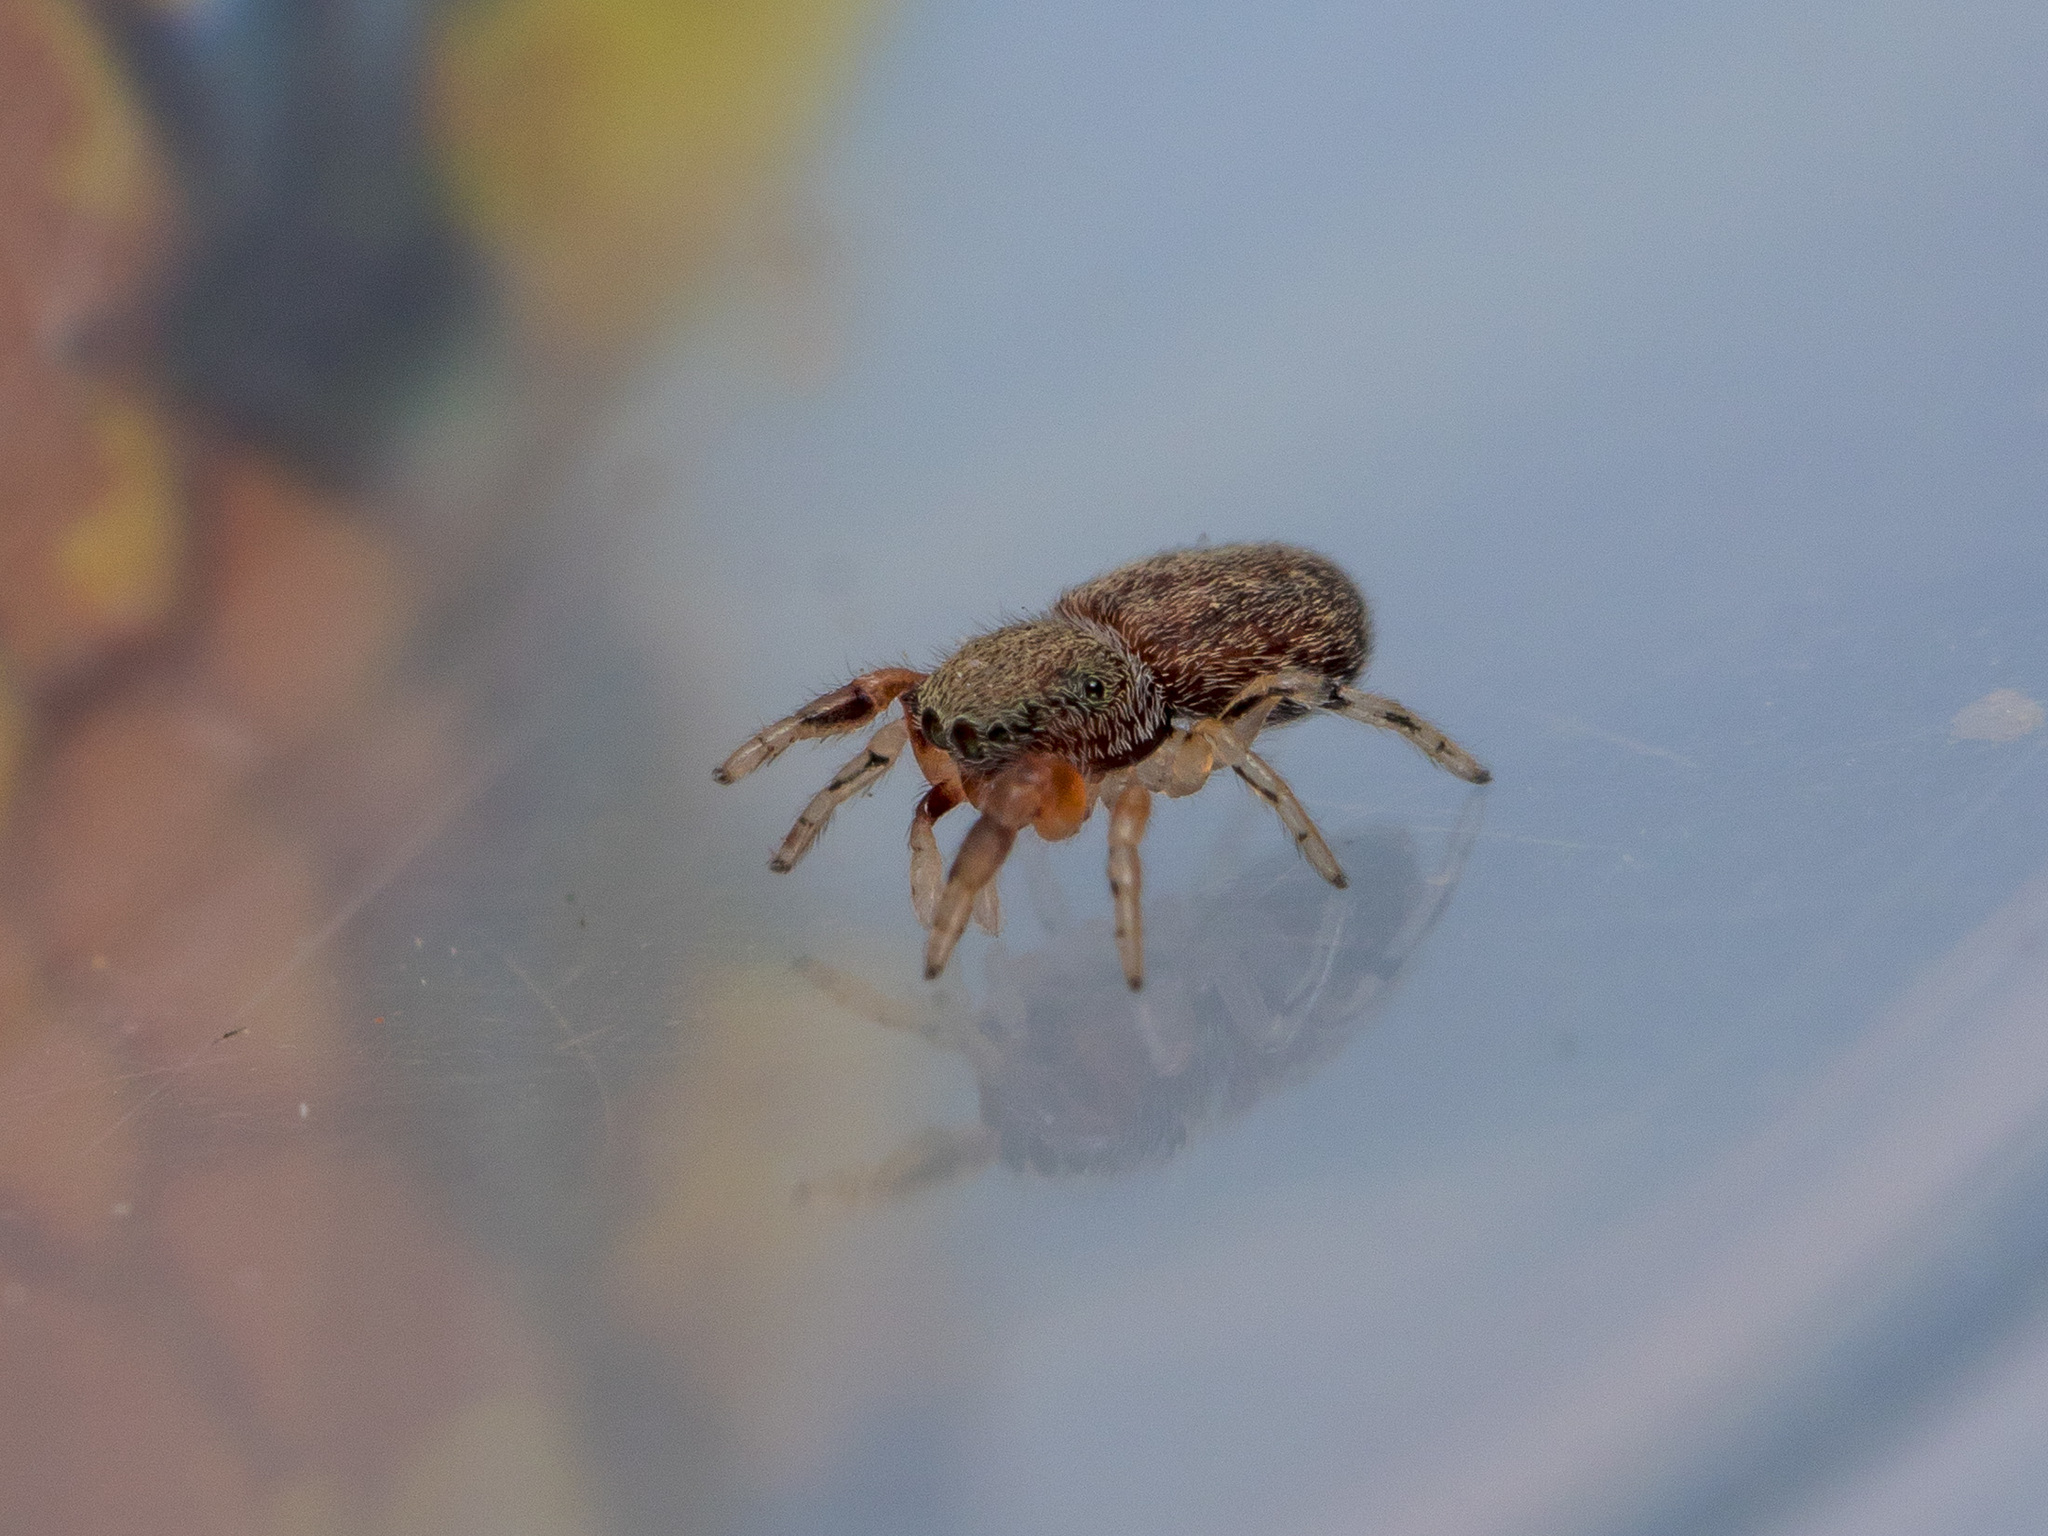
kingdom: Animalia
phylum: Arthropoda
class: Arachnida
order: Araneae
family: Salticidae
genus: Ballus
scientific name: Ballus chalybeius
